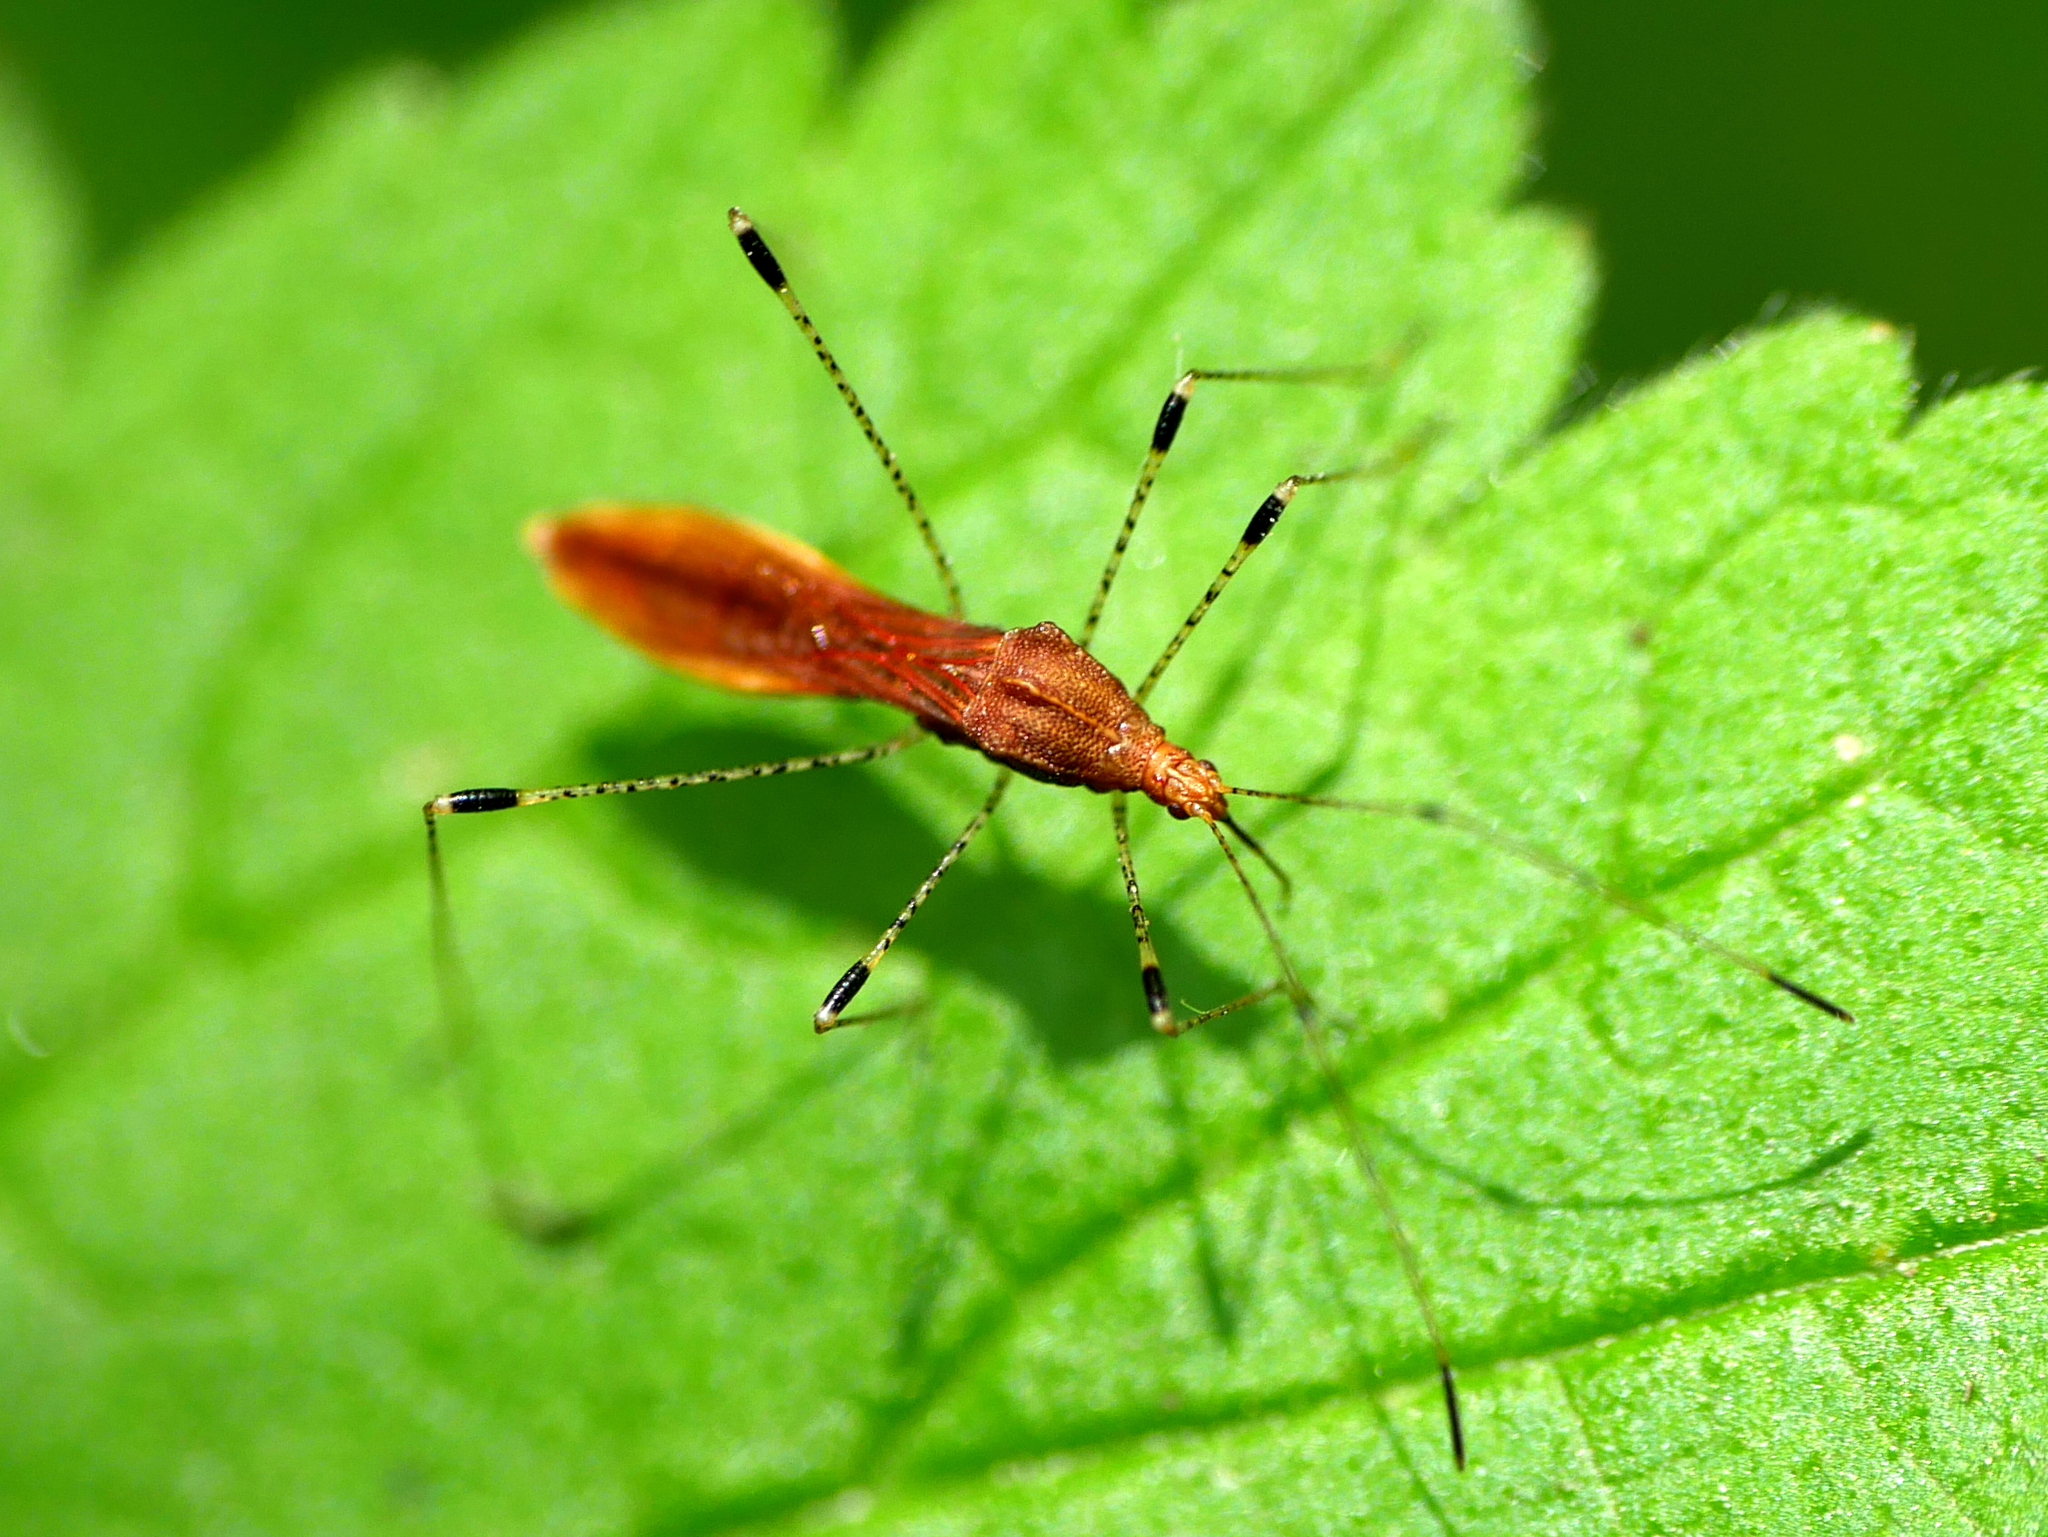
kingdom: Animalia
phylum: Arthropoda
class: Insecta
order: Hemiptera
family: Berytidae
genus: Metatropis
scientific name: Metatropis rufescens
